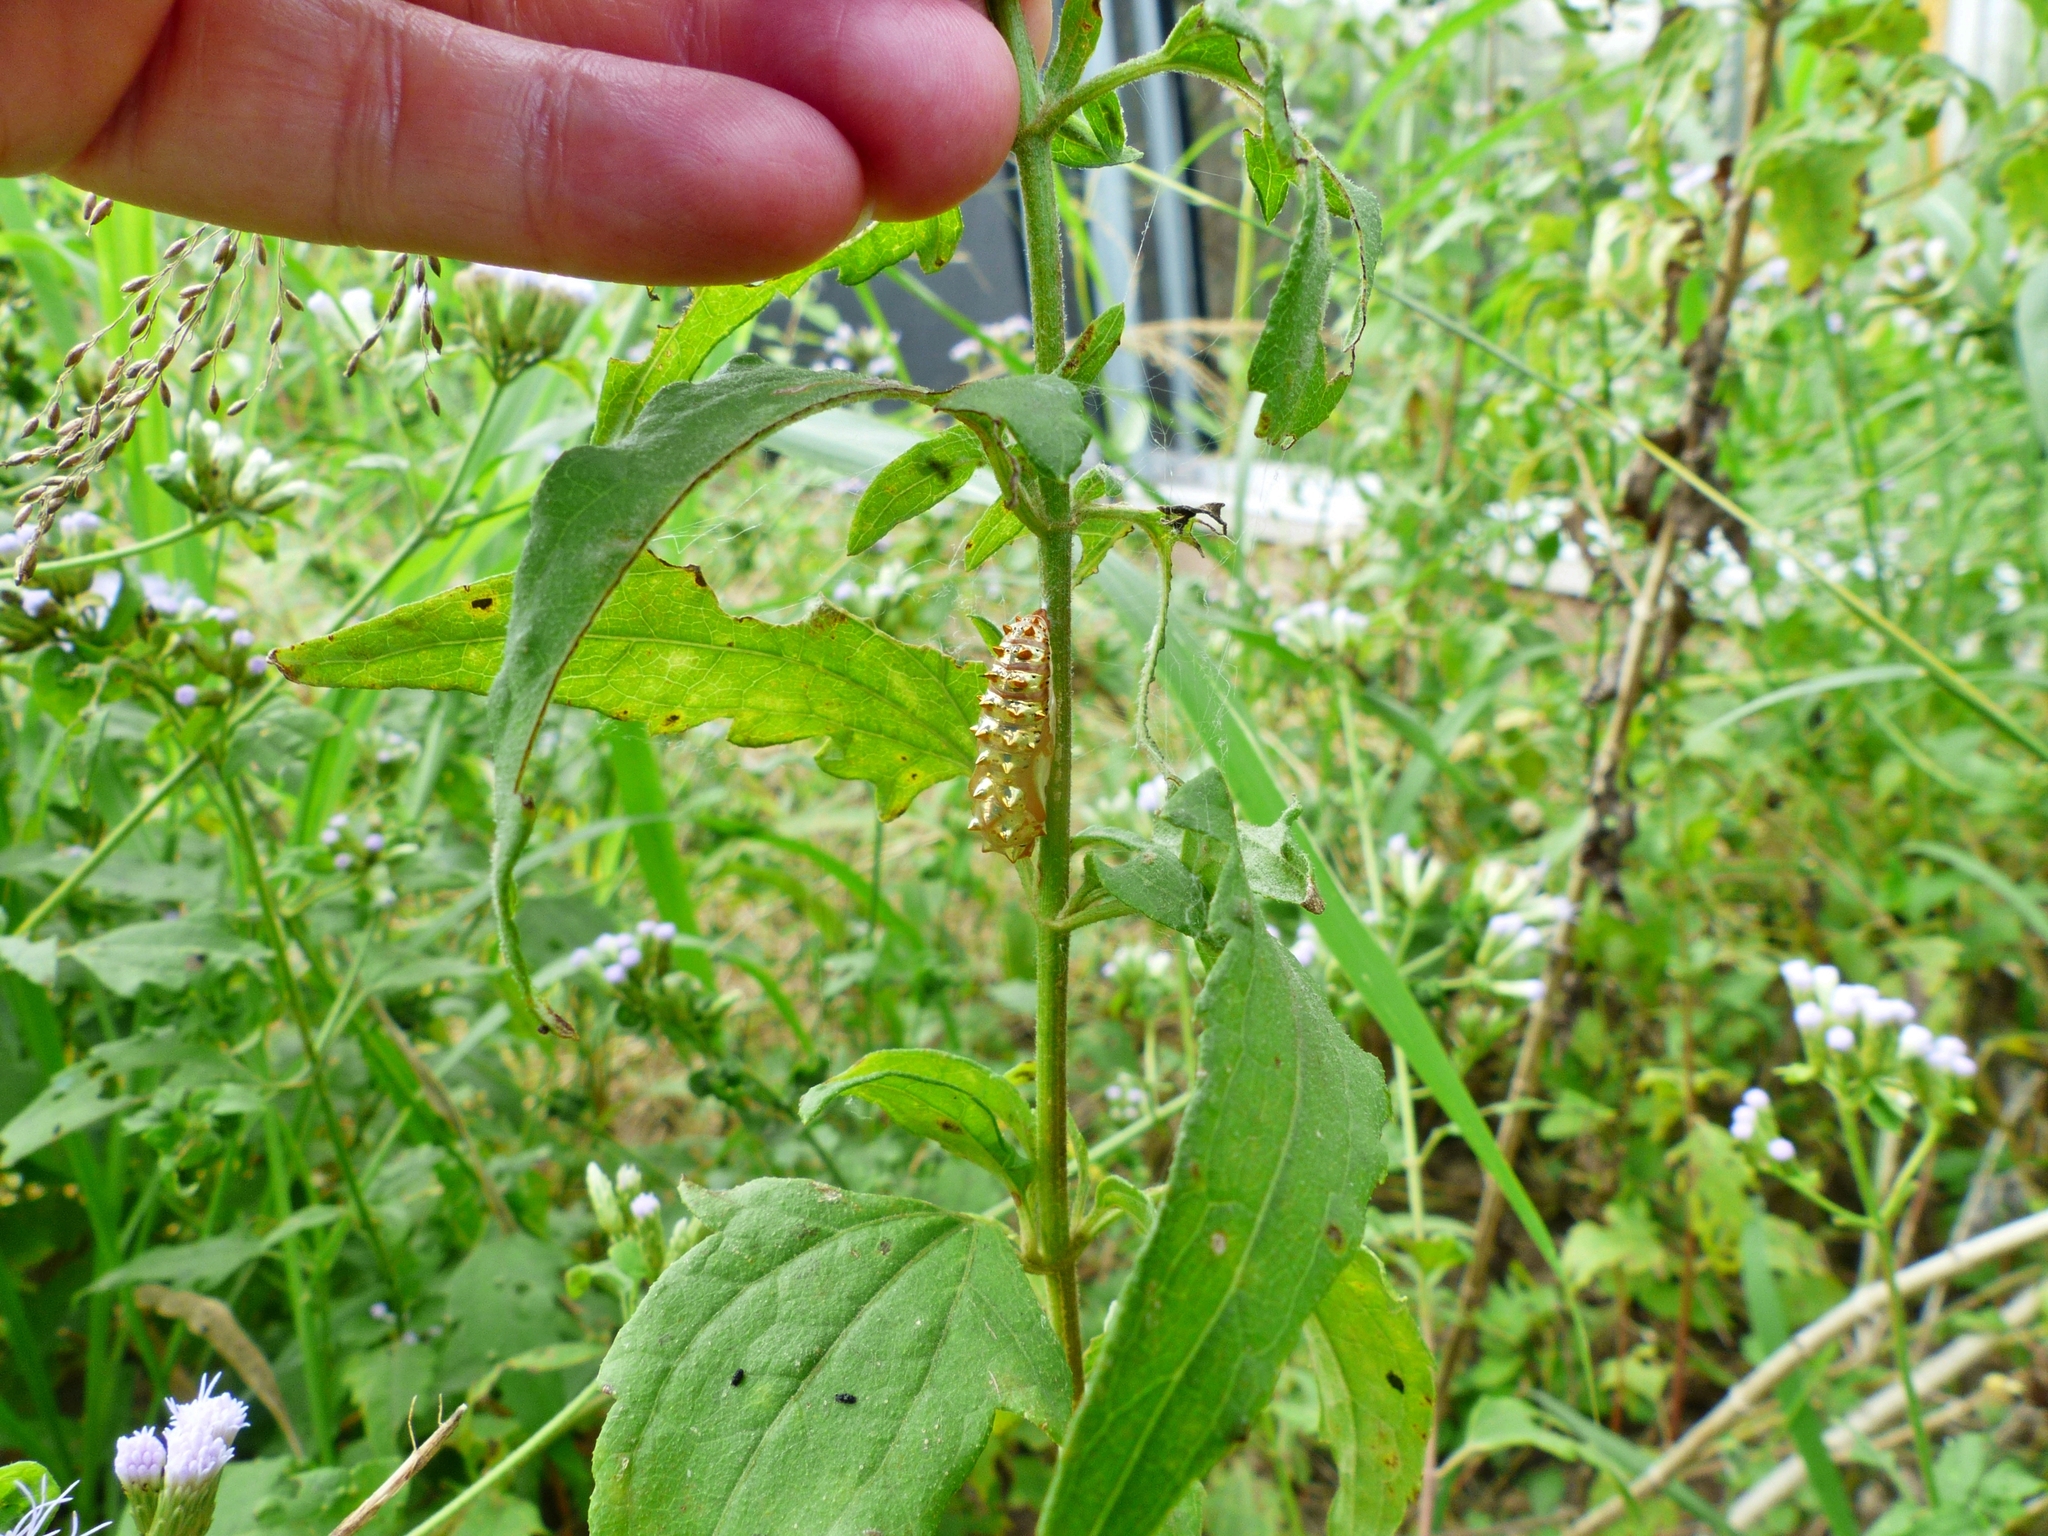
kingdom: Animalia
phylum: Arthropoda
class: Insecta
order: Lepidoptera
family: Nymphalidae
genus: Euptoieta
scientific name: Euptoieta claudia
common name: Variegated fritillary
